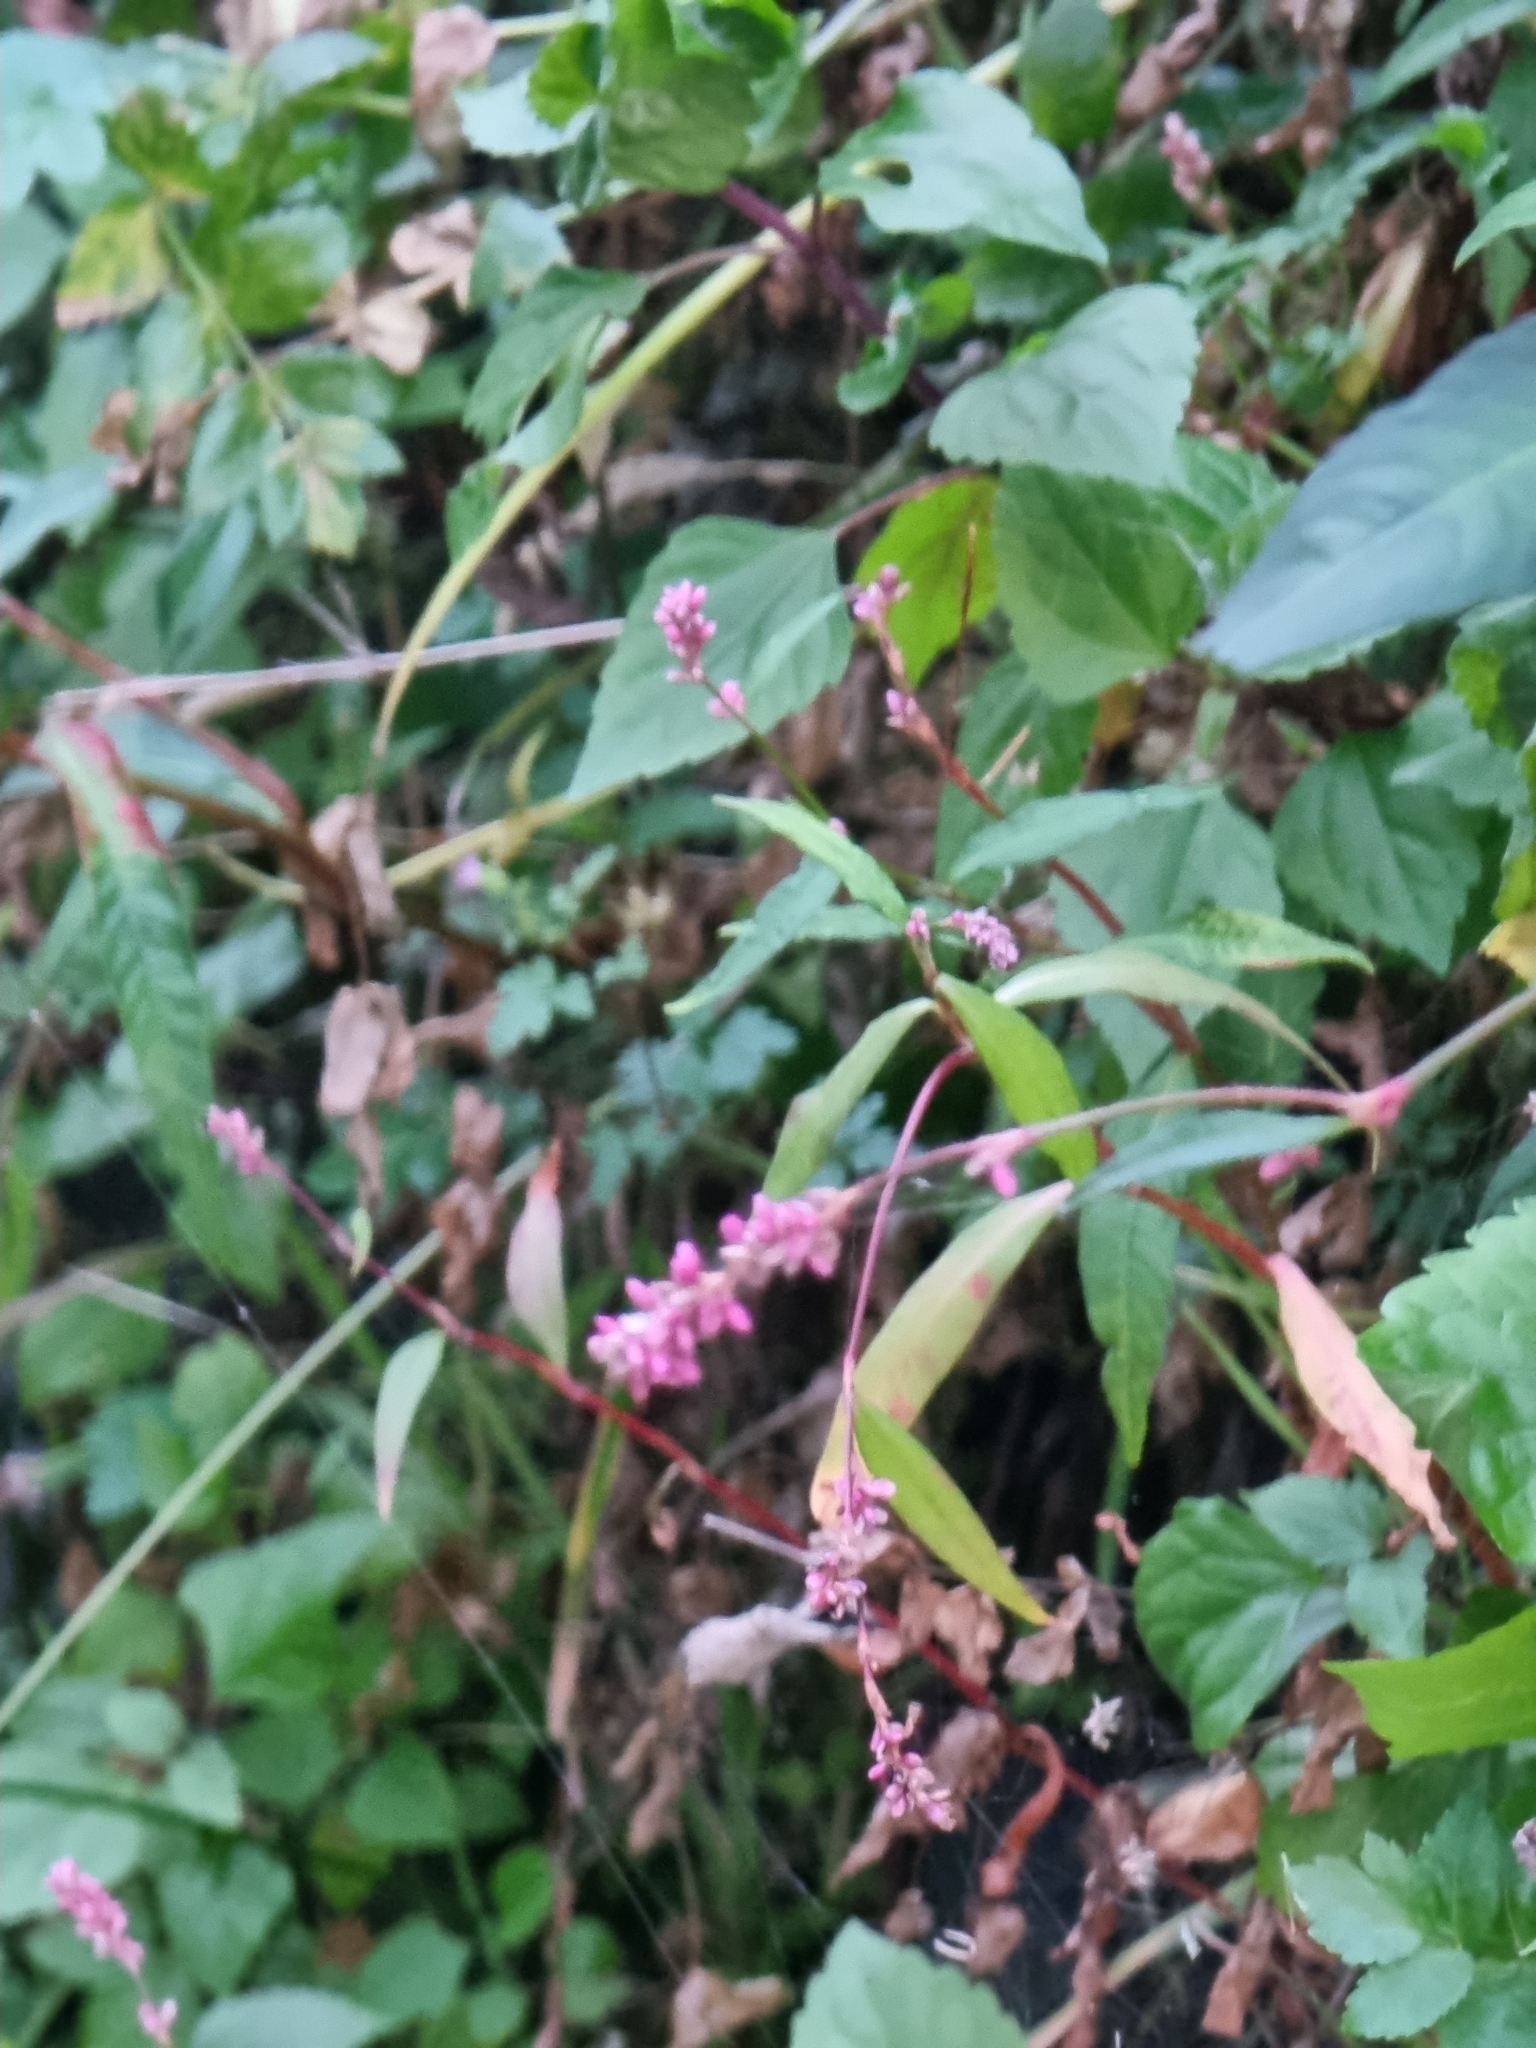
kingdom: Plantae
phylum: Tracheophyta
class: Magnoliopsida
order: Caryophyllales
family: Polygonaceae
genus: Persicaria
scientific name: Persicaria decipiens
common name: Willow-weed
